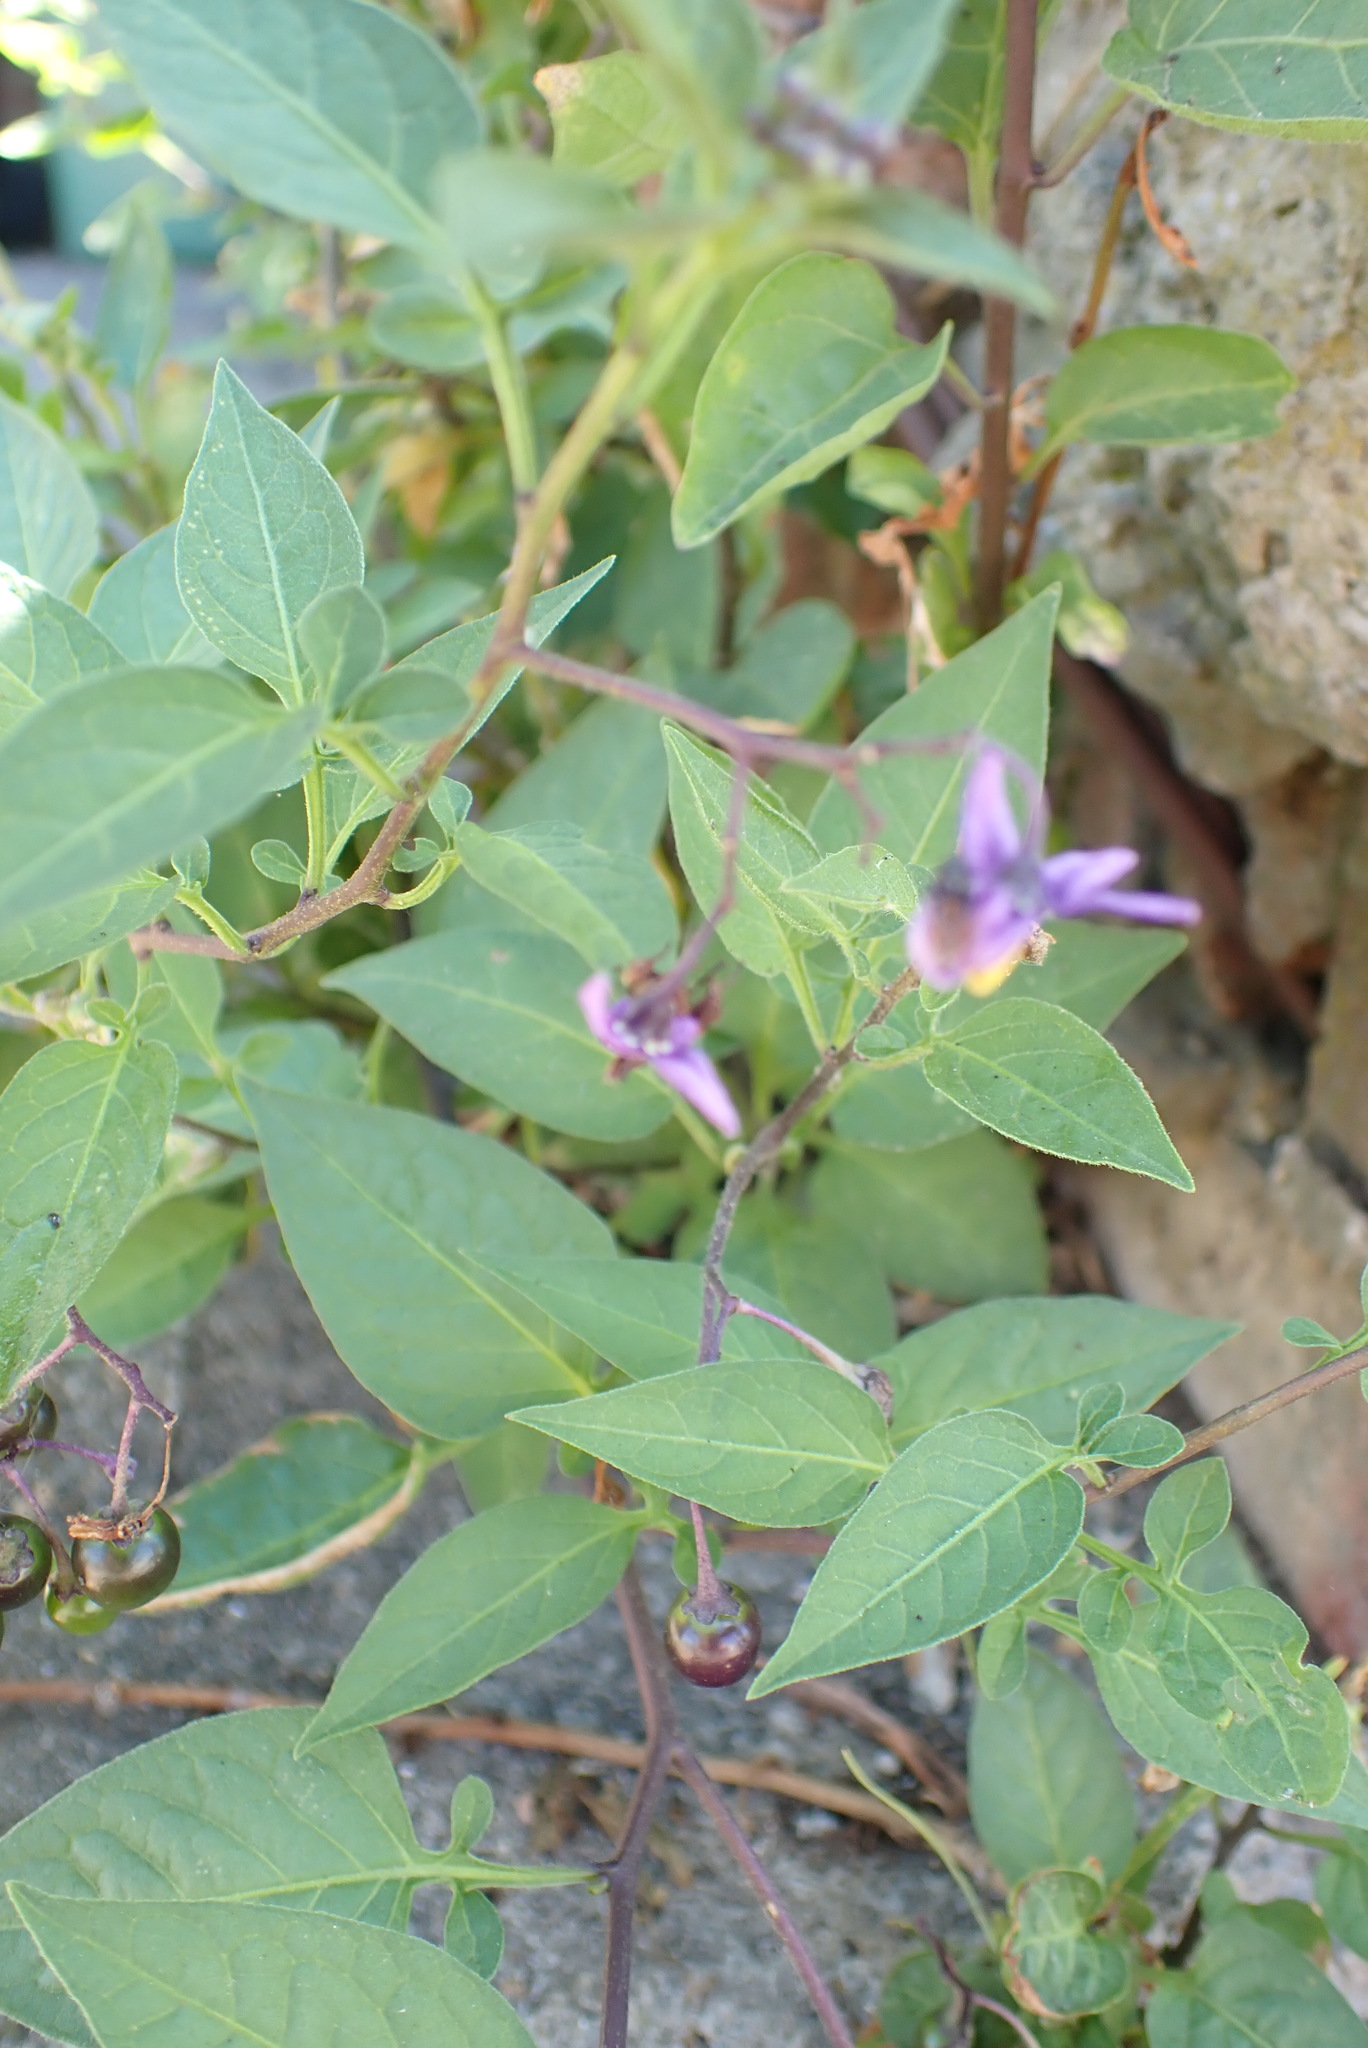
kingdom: Plantae
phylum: Tracheophyta
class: Magnoliopsida
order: Solanales
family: Solanaceae
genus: Solanum
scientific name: Solanum dulcamara
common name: Climbing nightshade
